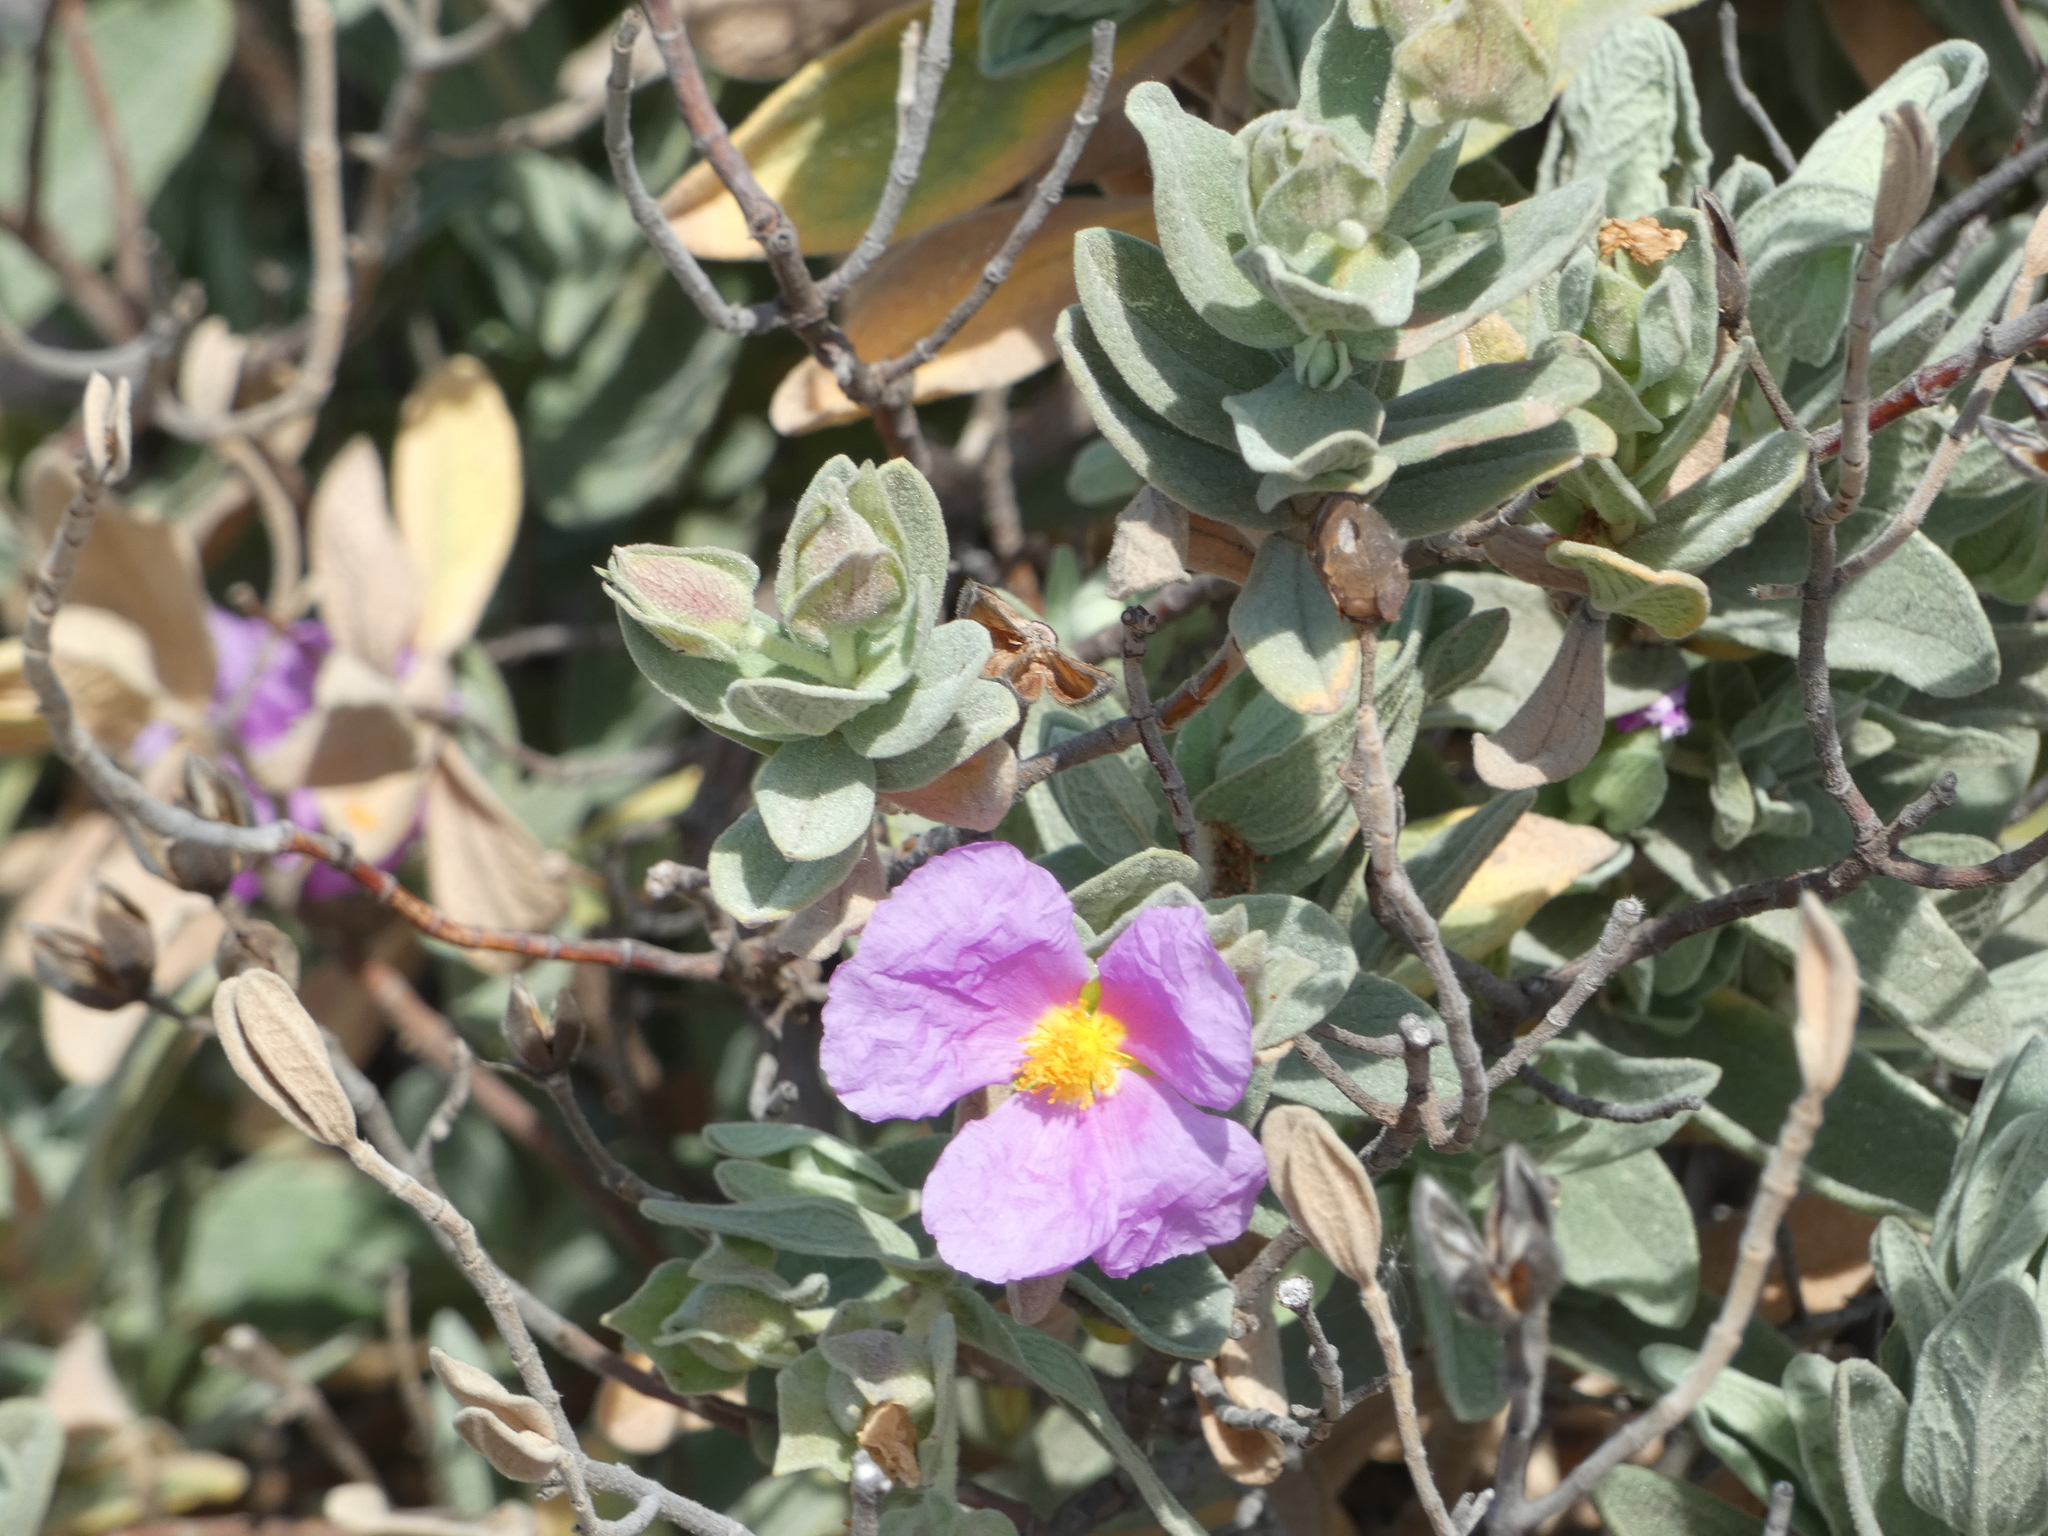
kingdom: Plantae
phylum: Tracheophyta
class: Magnoliopsida
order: Malvales
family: Cistaceae
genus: Cistus
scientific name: Cistus albidus
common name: White-leaf rock-rose
